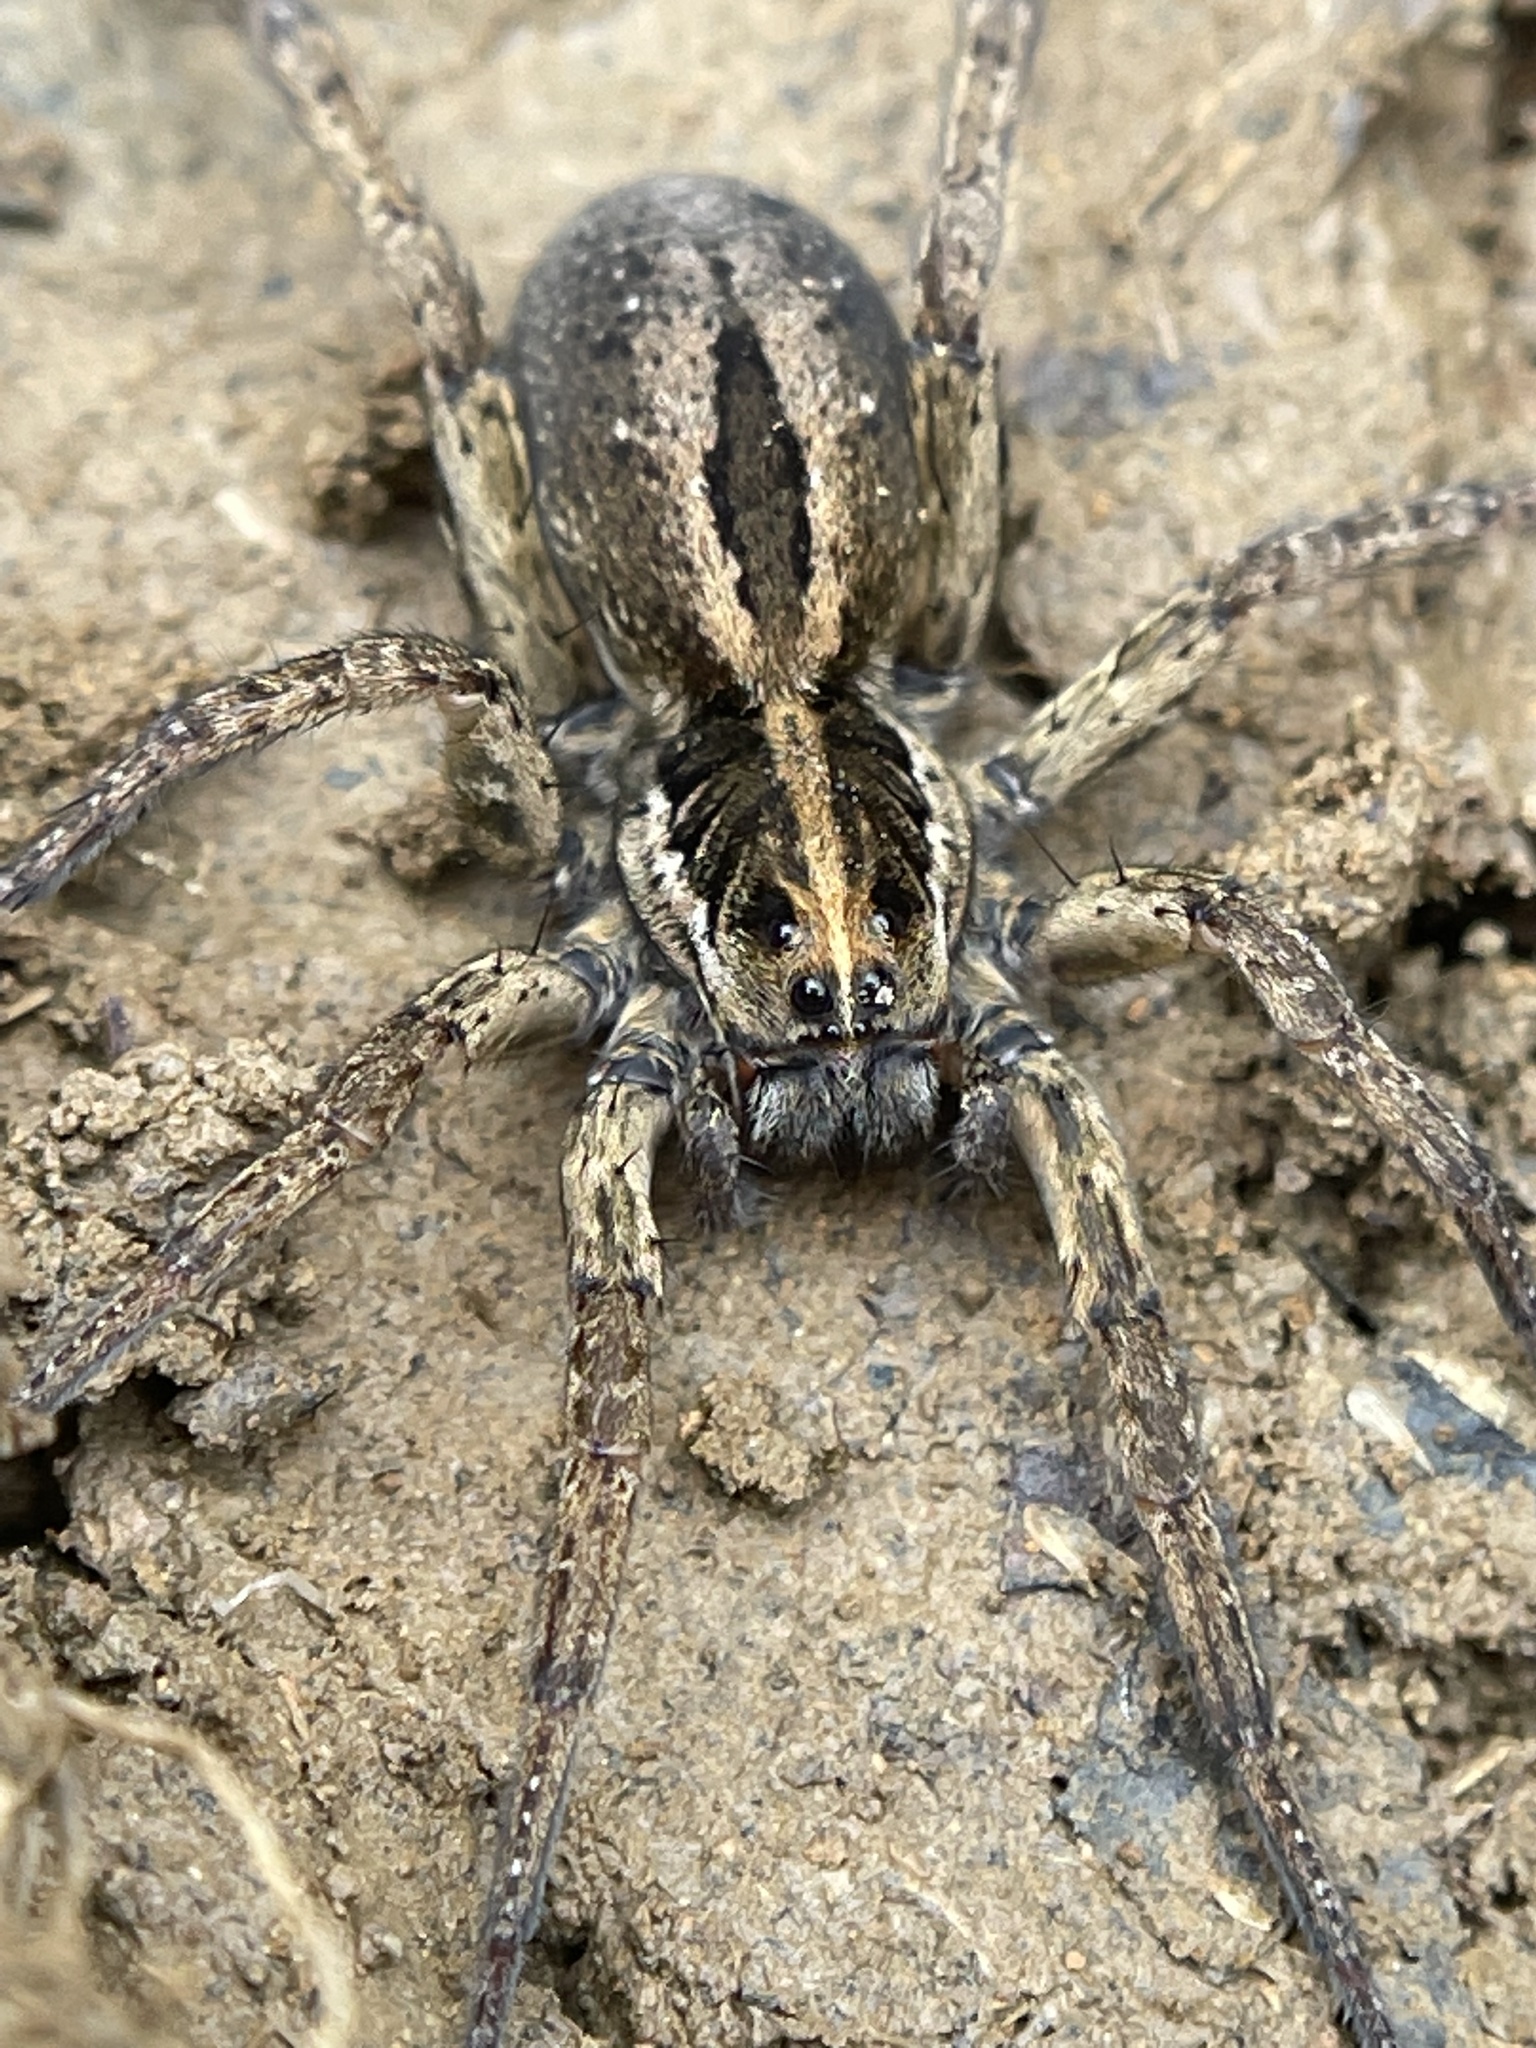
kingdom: Animalia
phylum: Arthropoda
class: Arachnida
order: Araneae
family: Lycosidae
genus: Tigrosa
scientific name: Tigrosa annexa
